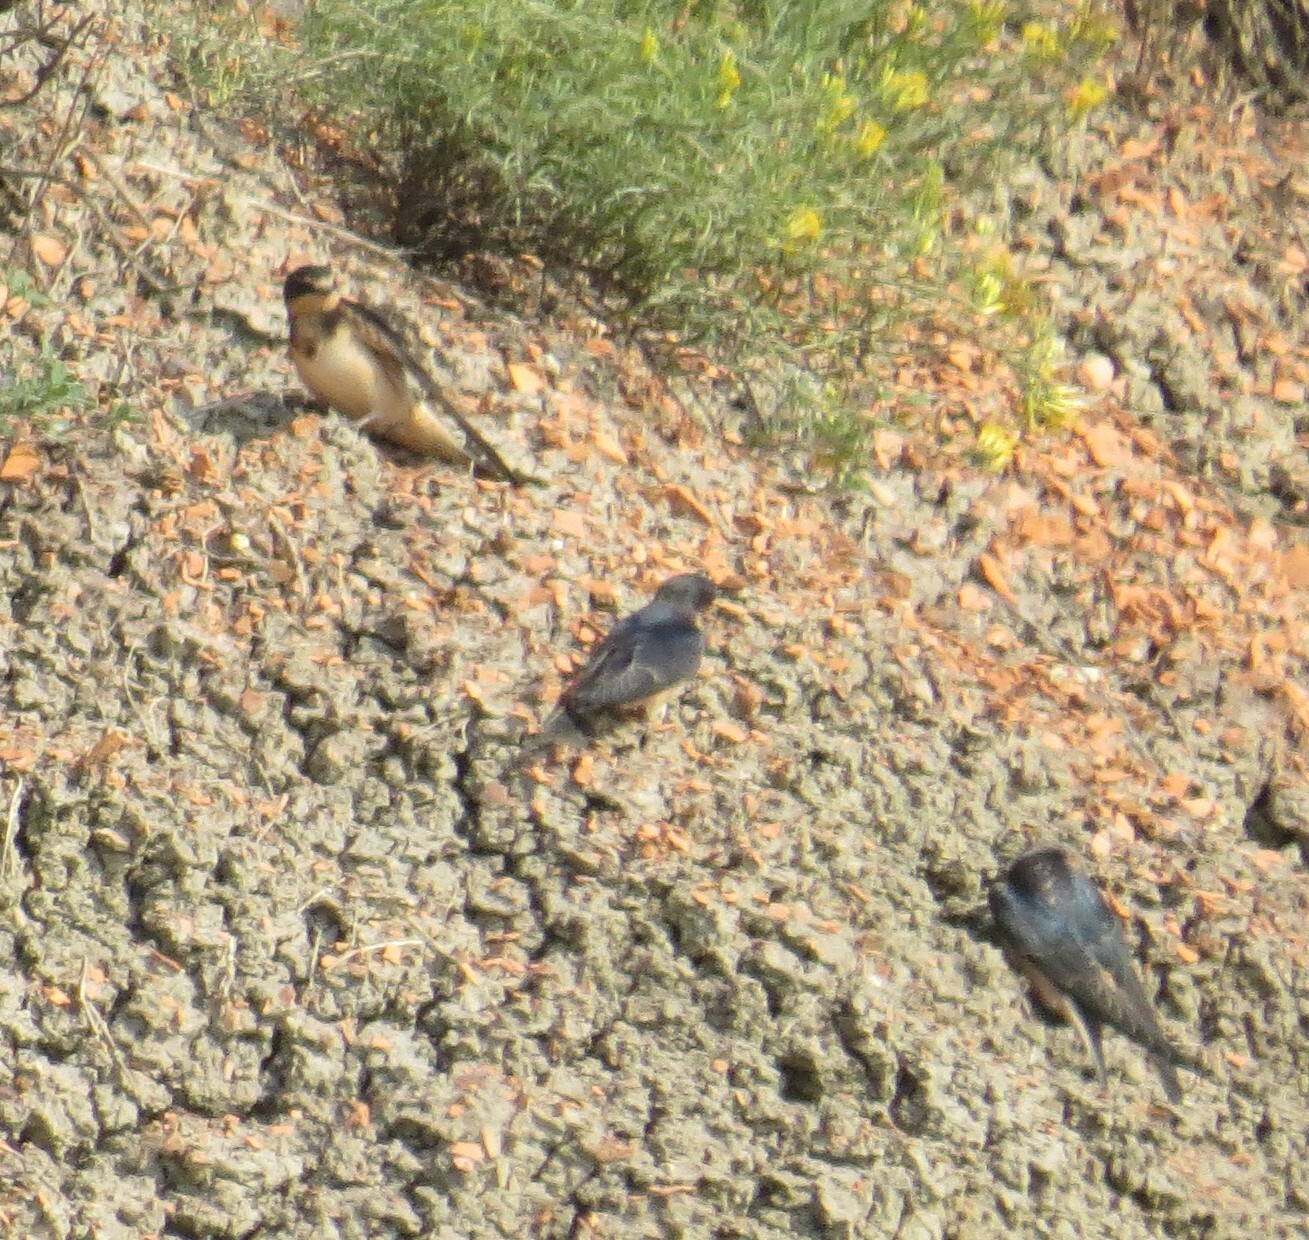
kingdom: Animalia
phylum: Chordata
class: Aves
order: Passeriformes
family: Hirundinidae
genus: Hirundo
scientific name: Hirundo rustica
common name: Barn swallow
